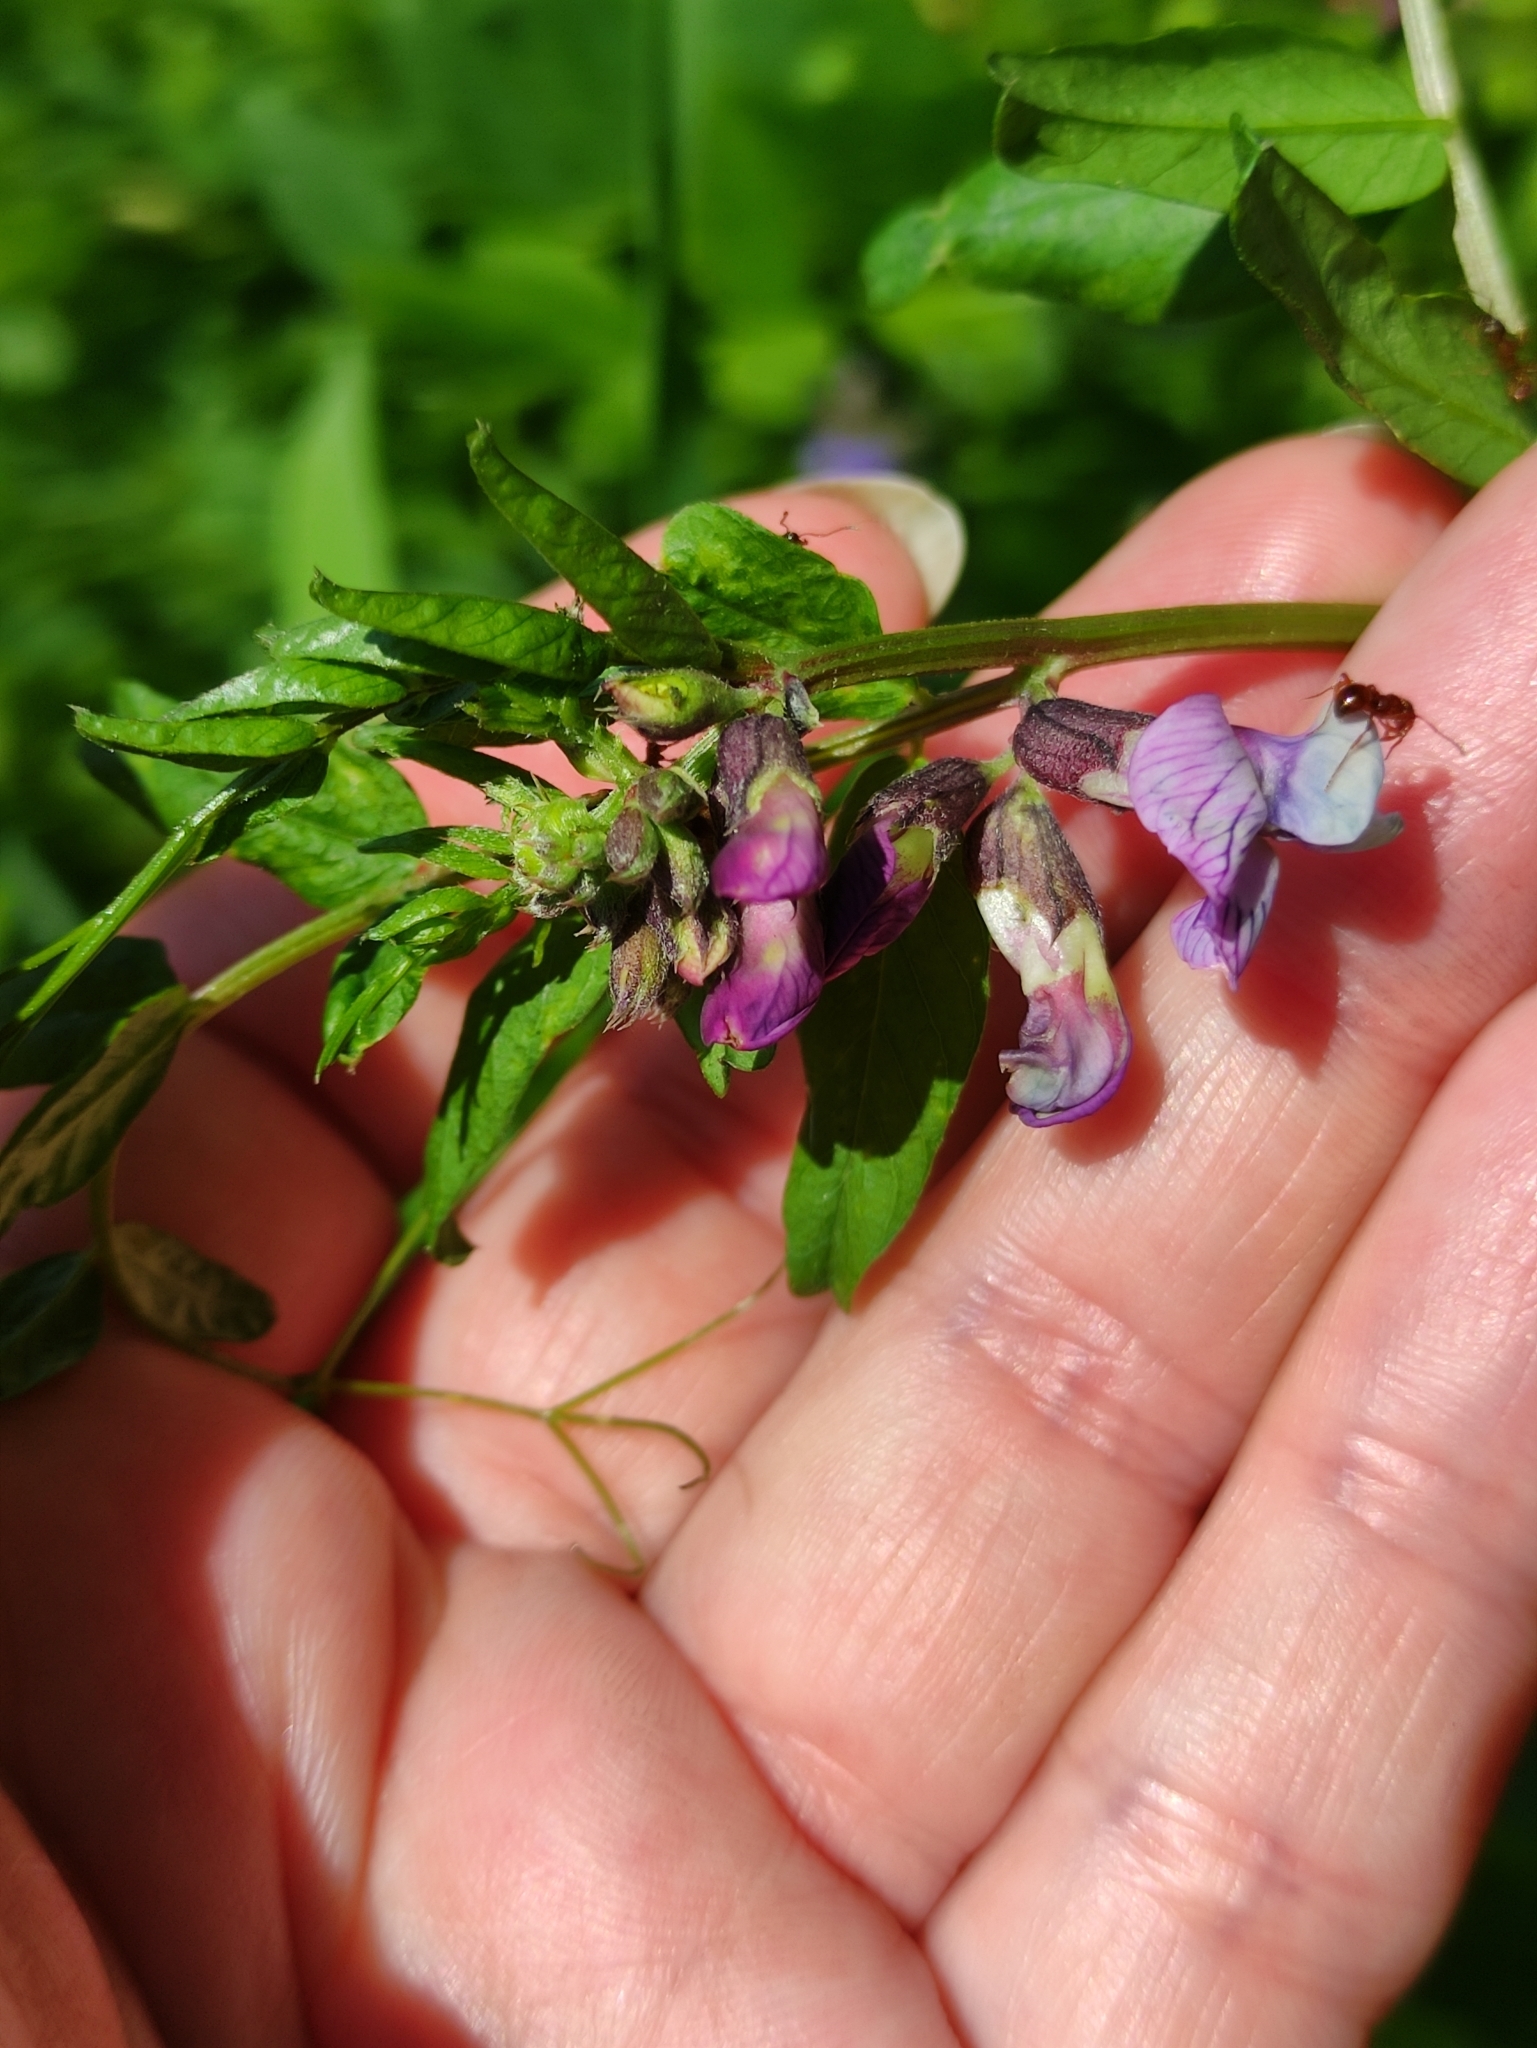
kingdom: Plantae
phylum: Tracheophyta
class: Magnoliopsida
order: Fabales
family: Fabaceae
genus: Vicia
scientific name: Vicia sepium
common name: Bush vetch
